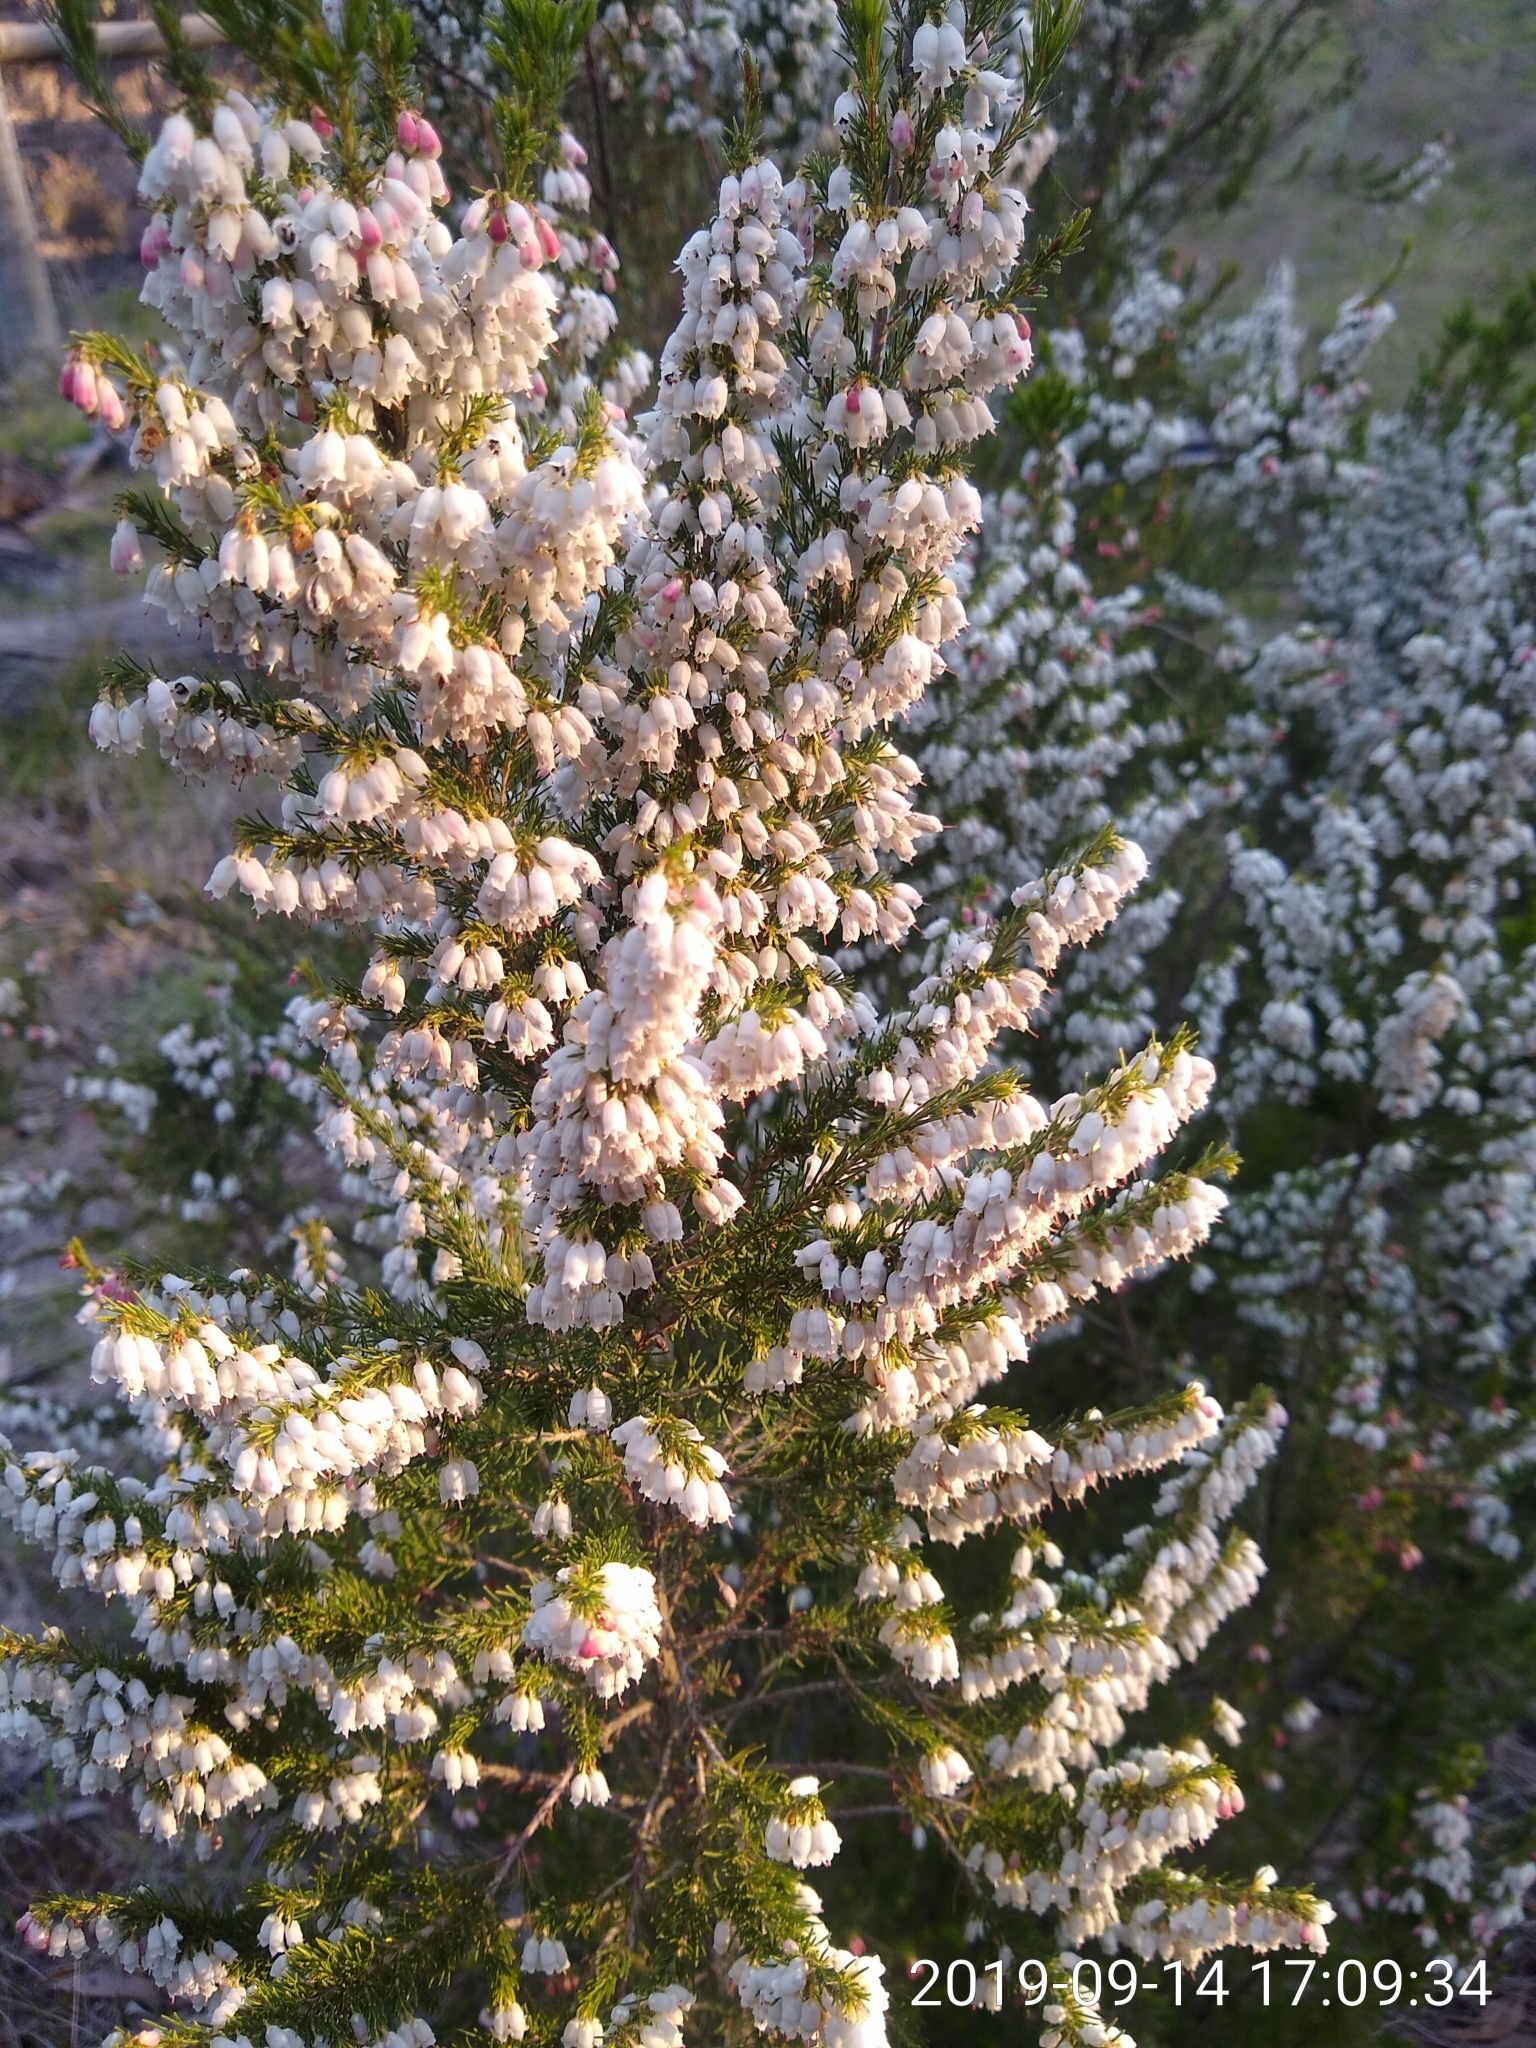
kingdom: Plantae
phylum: Tracheophyta
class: Magnoliopsida
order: Ericales
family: Ericaceae
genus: Erica
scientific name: Erica lusitanica
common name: Spanish heath
